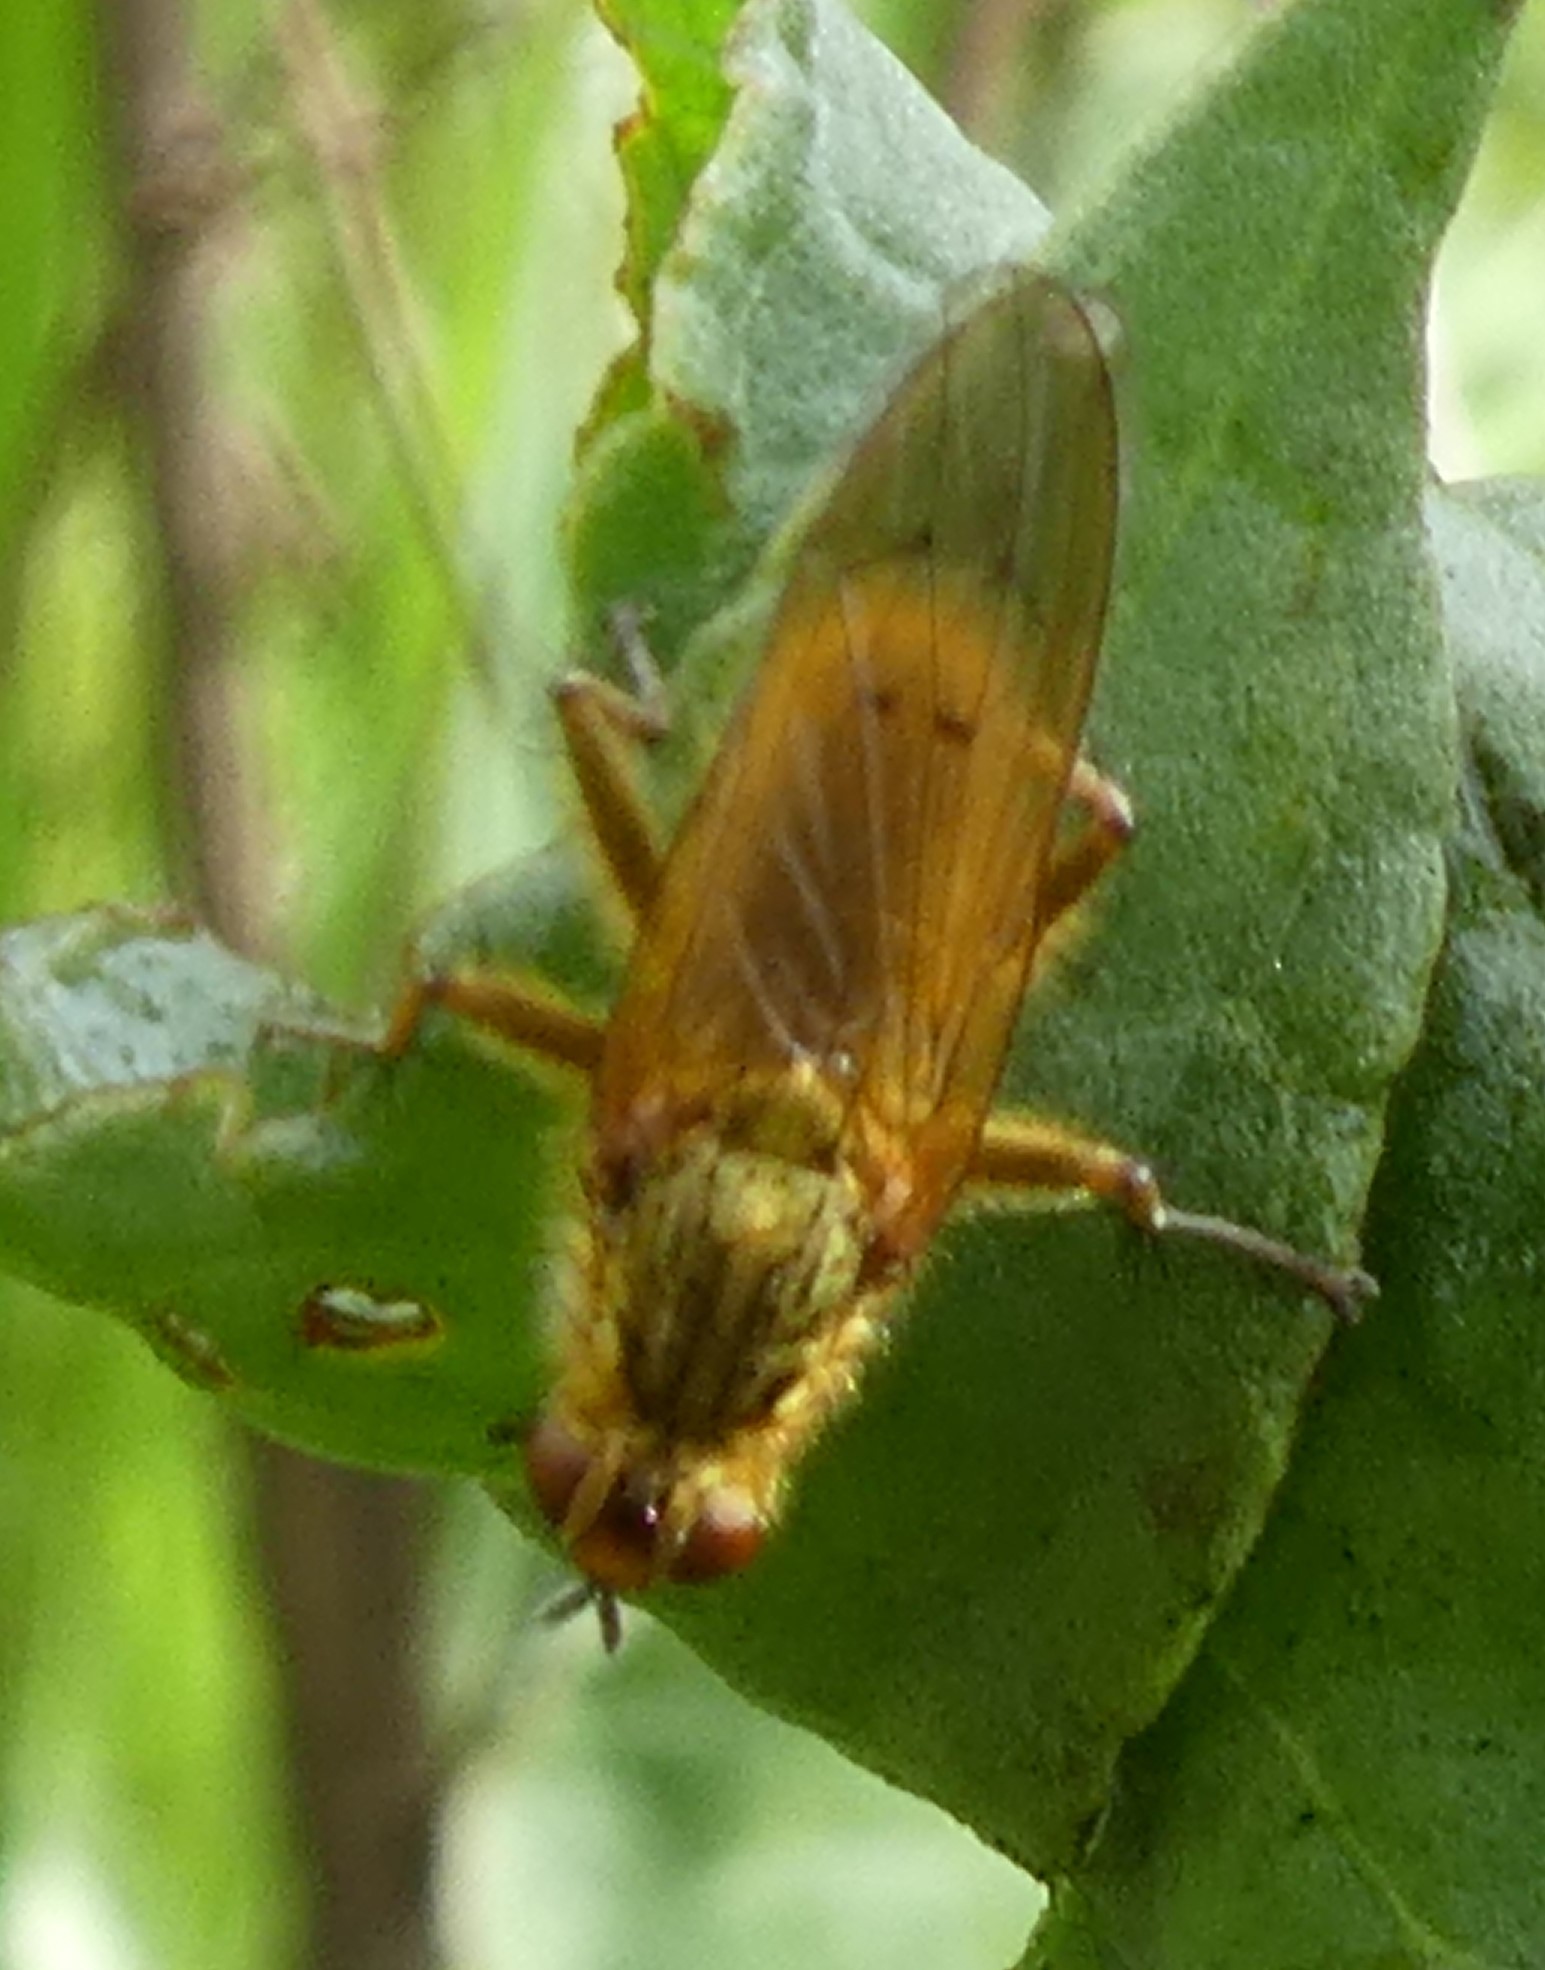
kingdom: Animalia
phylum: Arthropoda
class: Insecta
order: Diptera
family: Scathophagidae
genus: Scathophaga
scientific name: Scathophaga stercoraria
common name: Yellow dung fly
